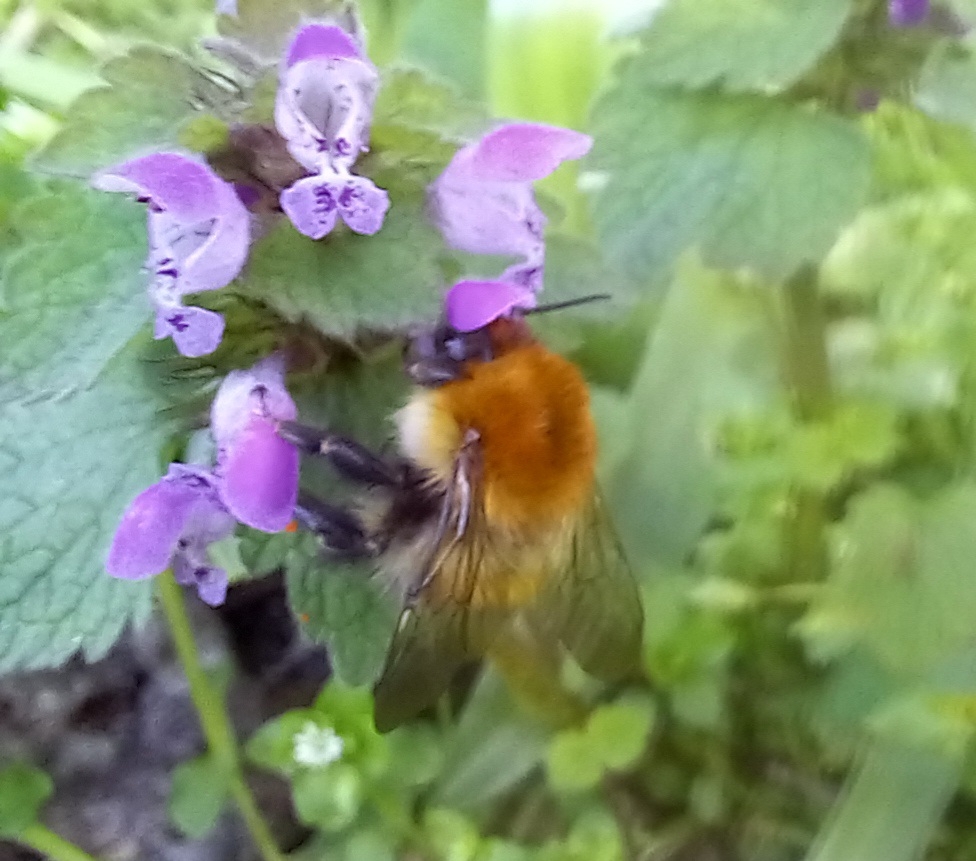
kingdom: Animalia
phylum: Arthropoda
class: Insecta
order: Hymenoptera
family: Apidae
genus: Bombus
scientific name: Bombus pascuorum
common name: Common carder bee
